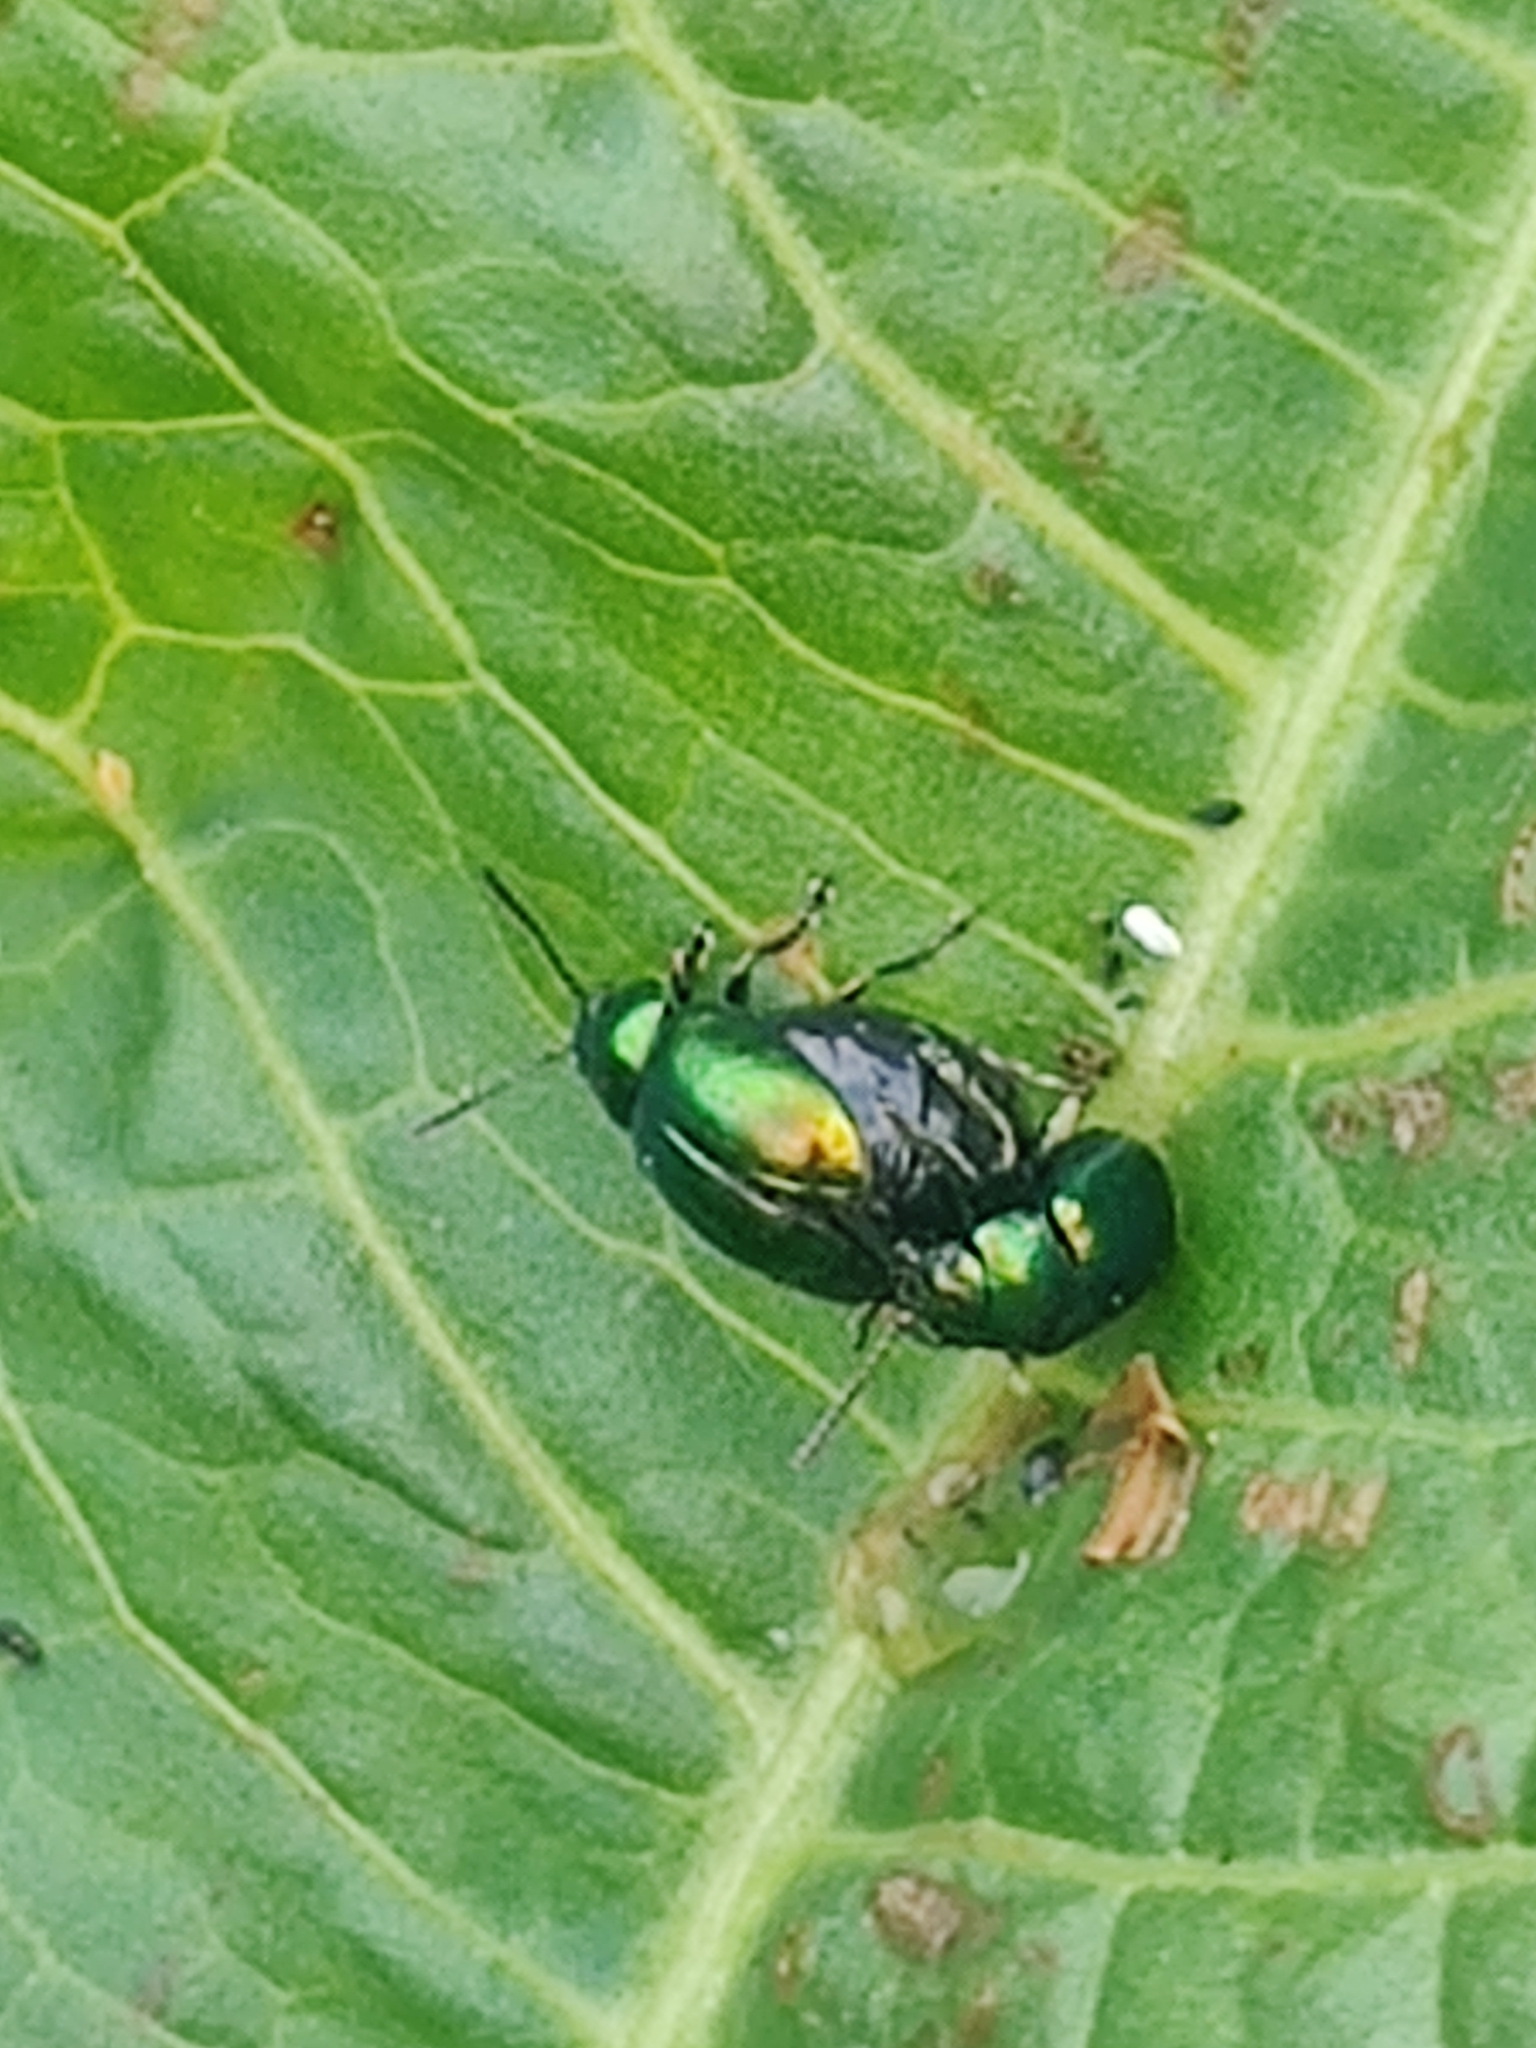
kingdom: Animalia
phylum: Arthropoda
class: Insecta
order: Coleoptera
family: Chrysomelidae
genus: Gastrophysa
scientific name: Gastrophysa viridula
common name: Green dock beetle
